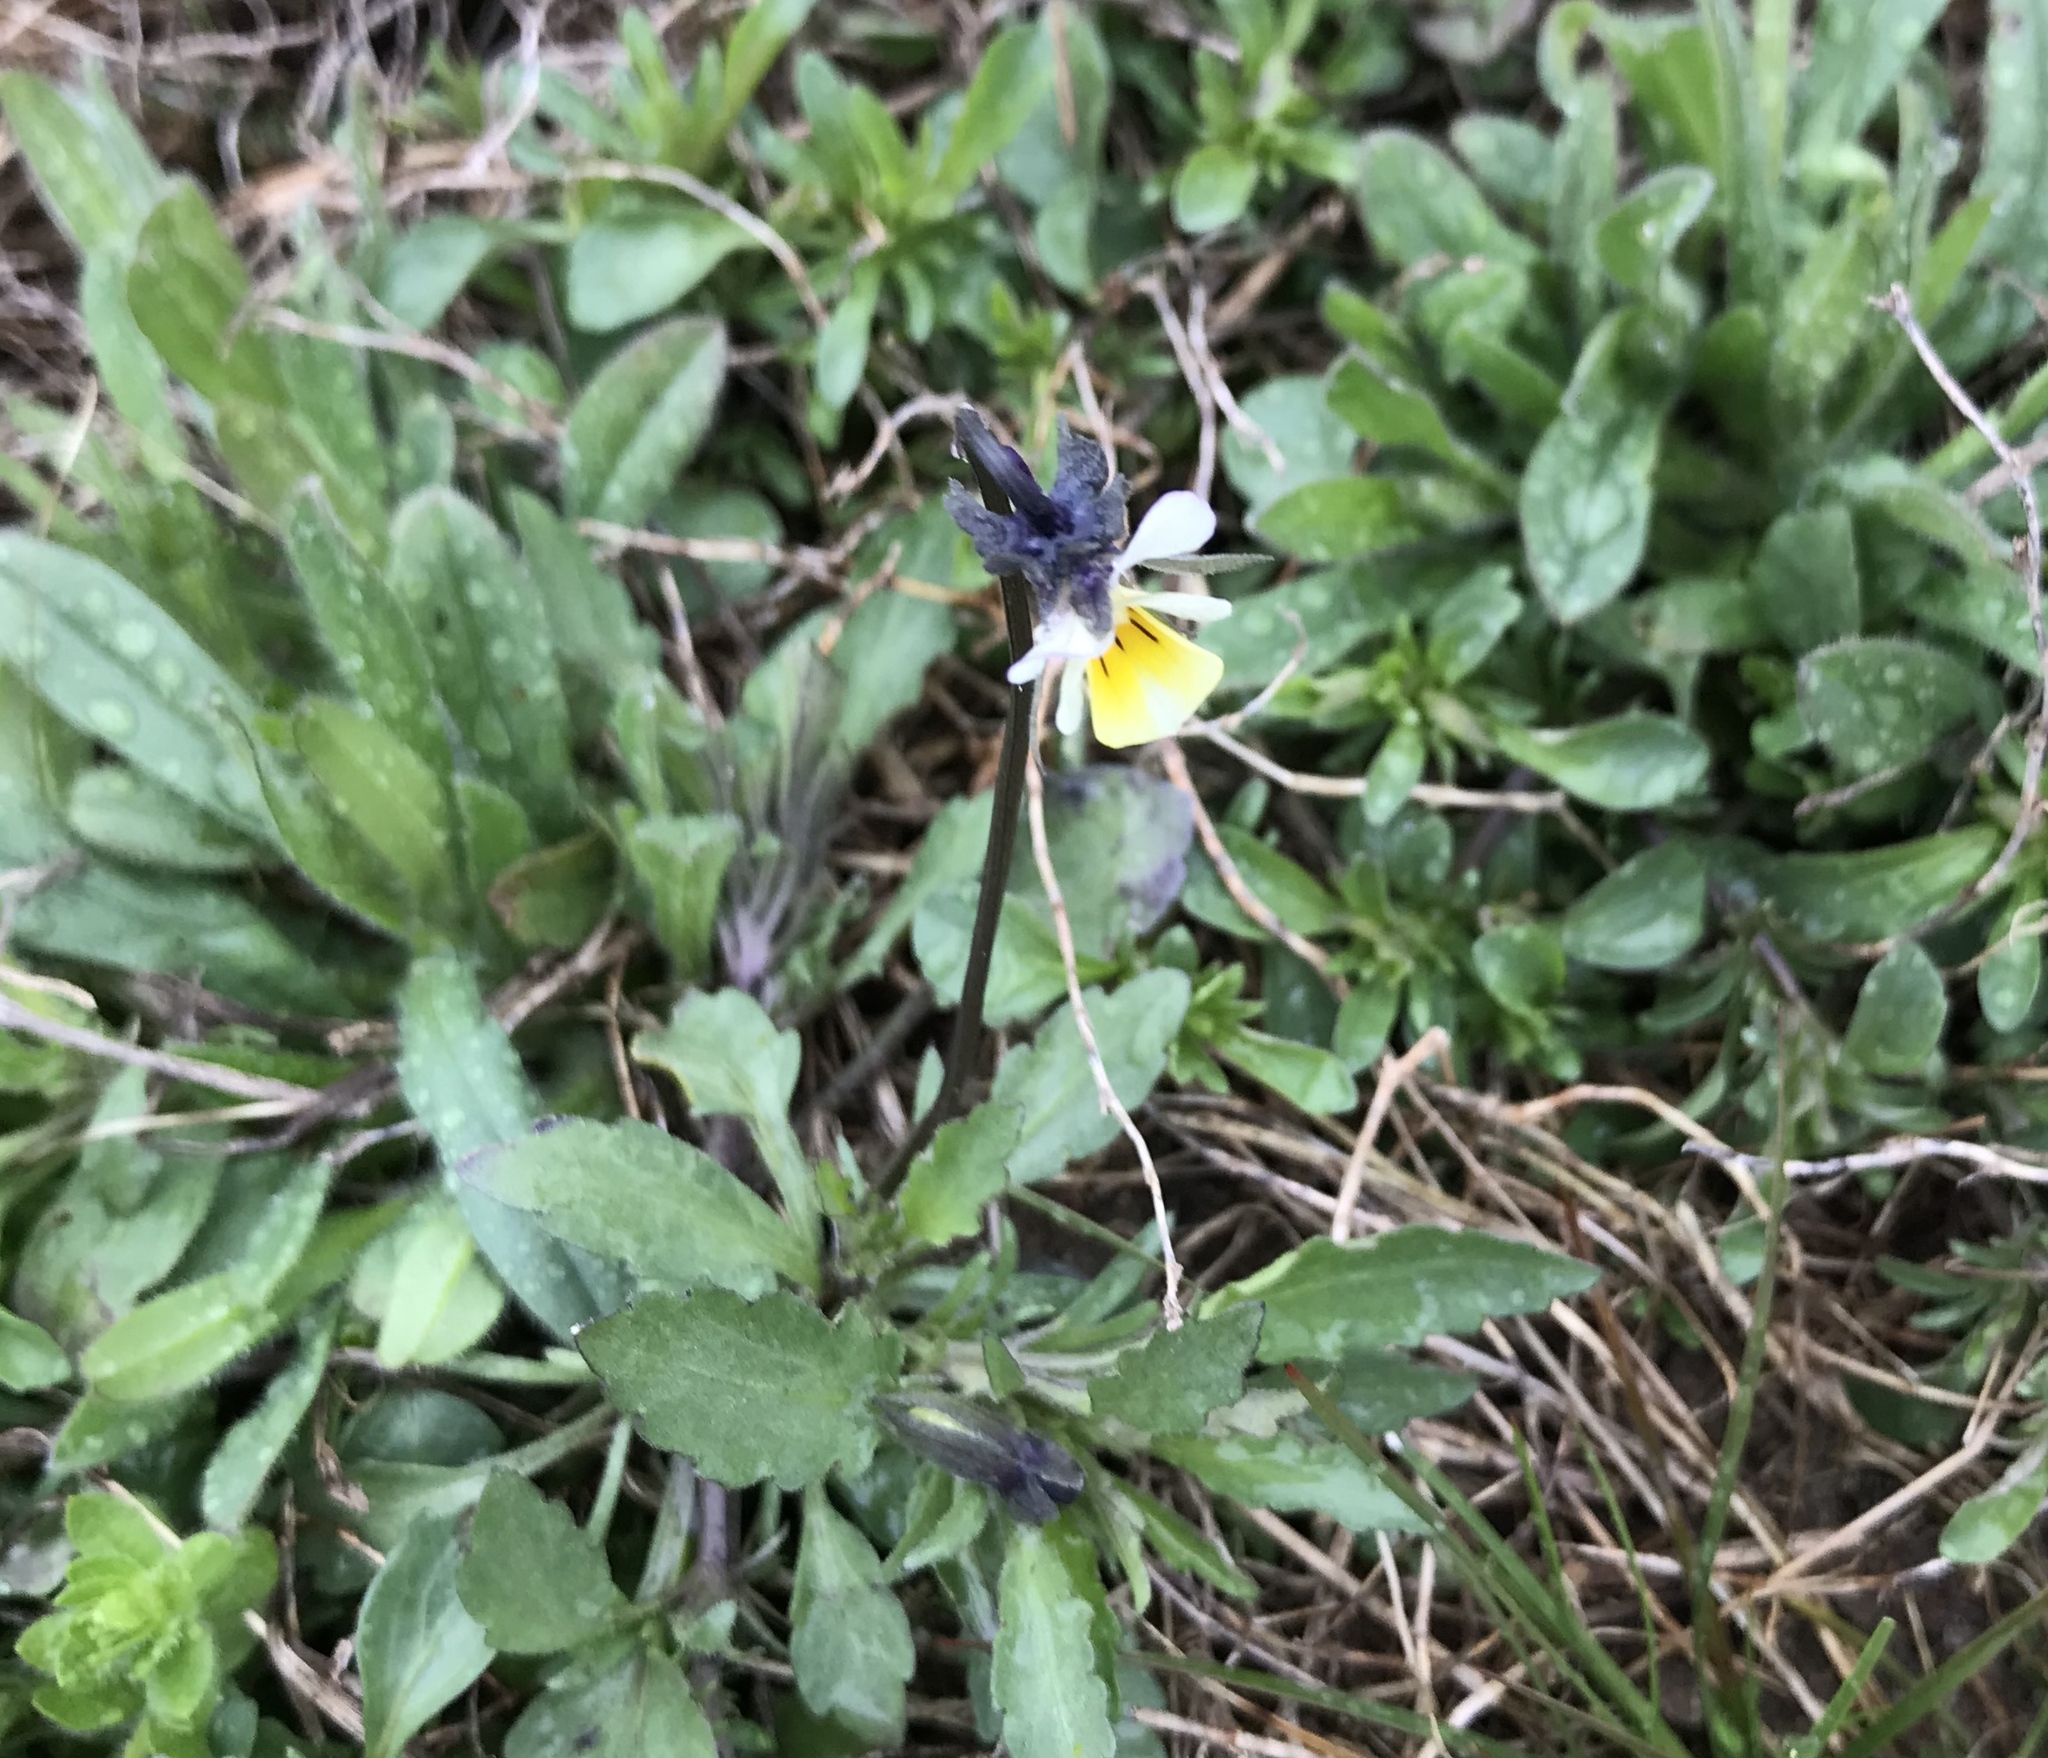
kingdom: Plantae
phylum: Tracheophyta
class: Magnoliopsida
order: Malpighiales
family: Violaceae
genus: Viola
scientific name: Viola arvensis
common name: Field pansy
